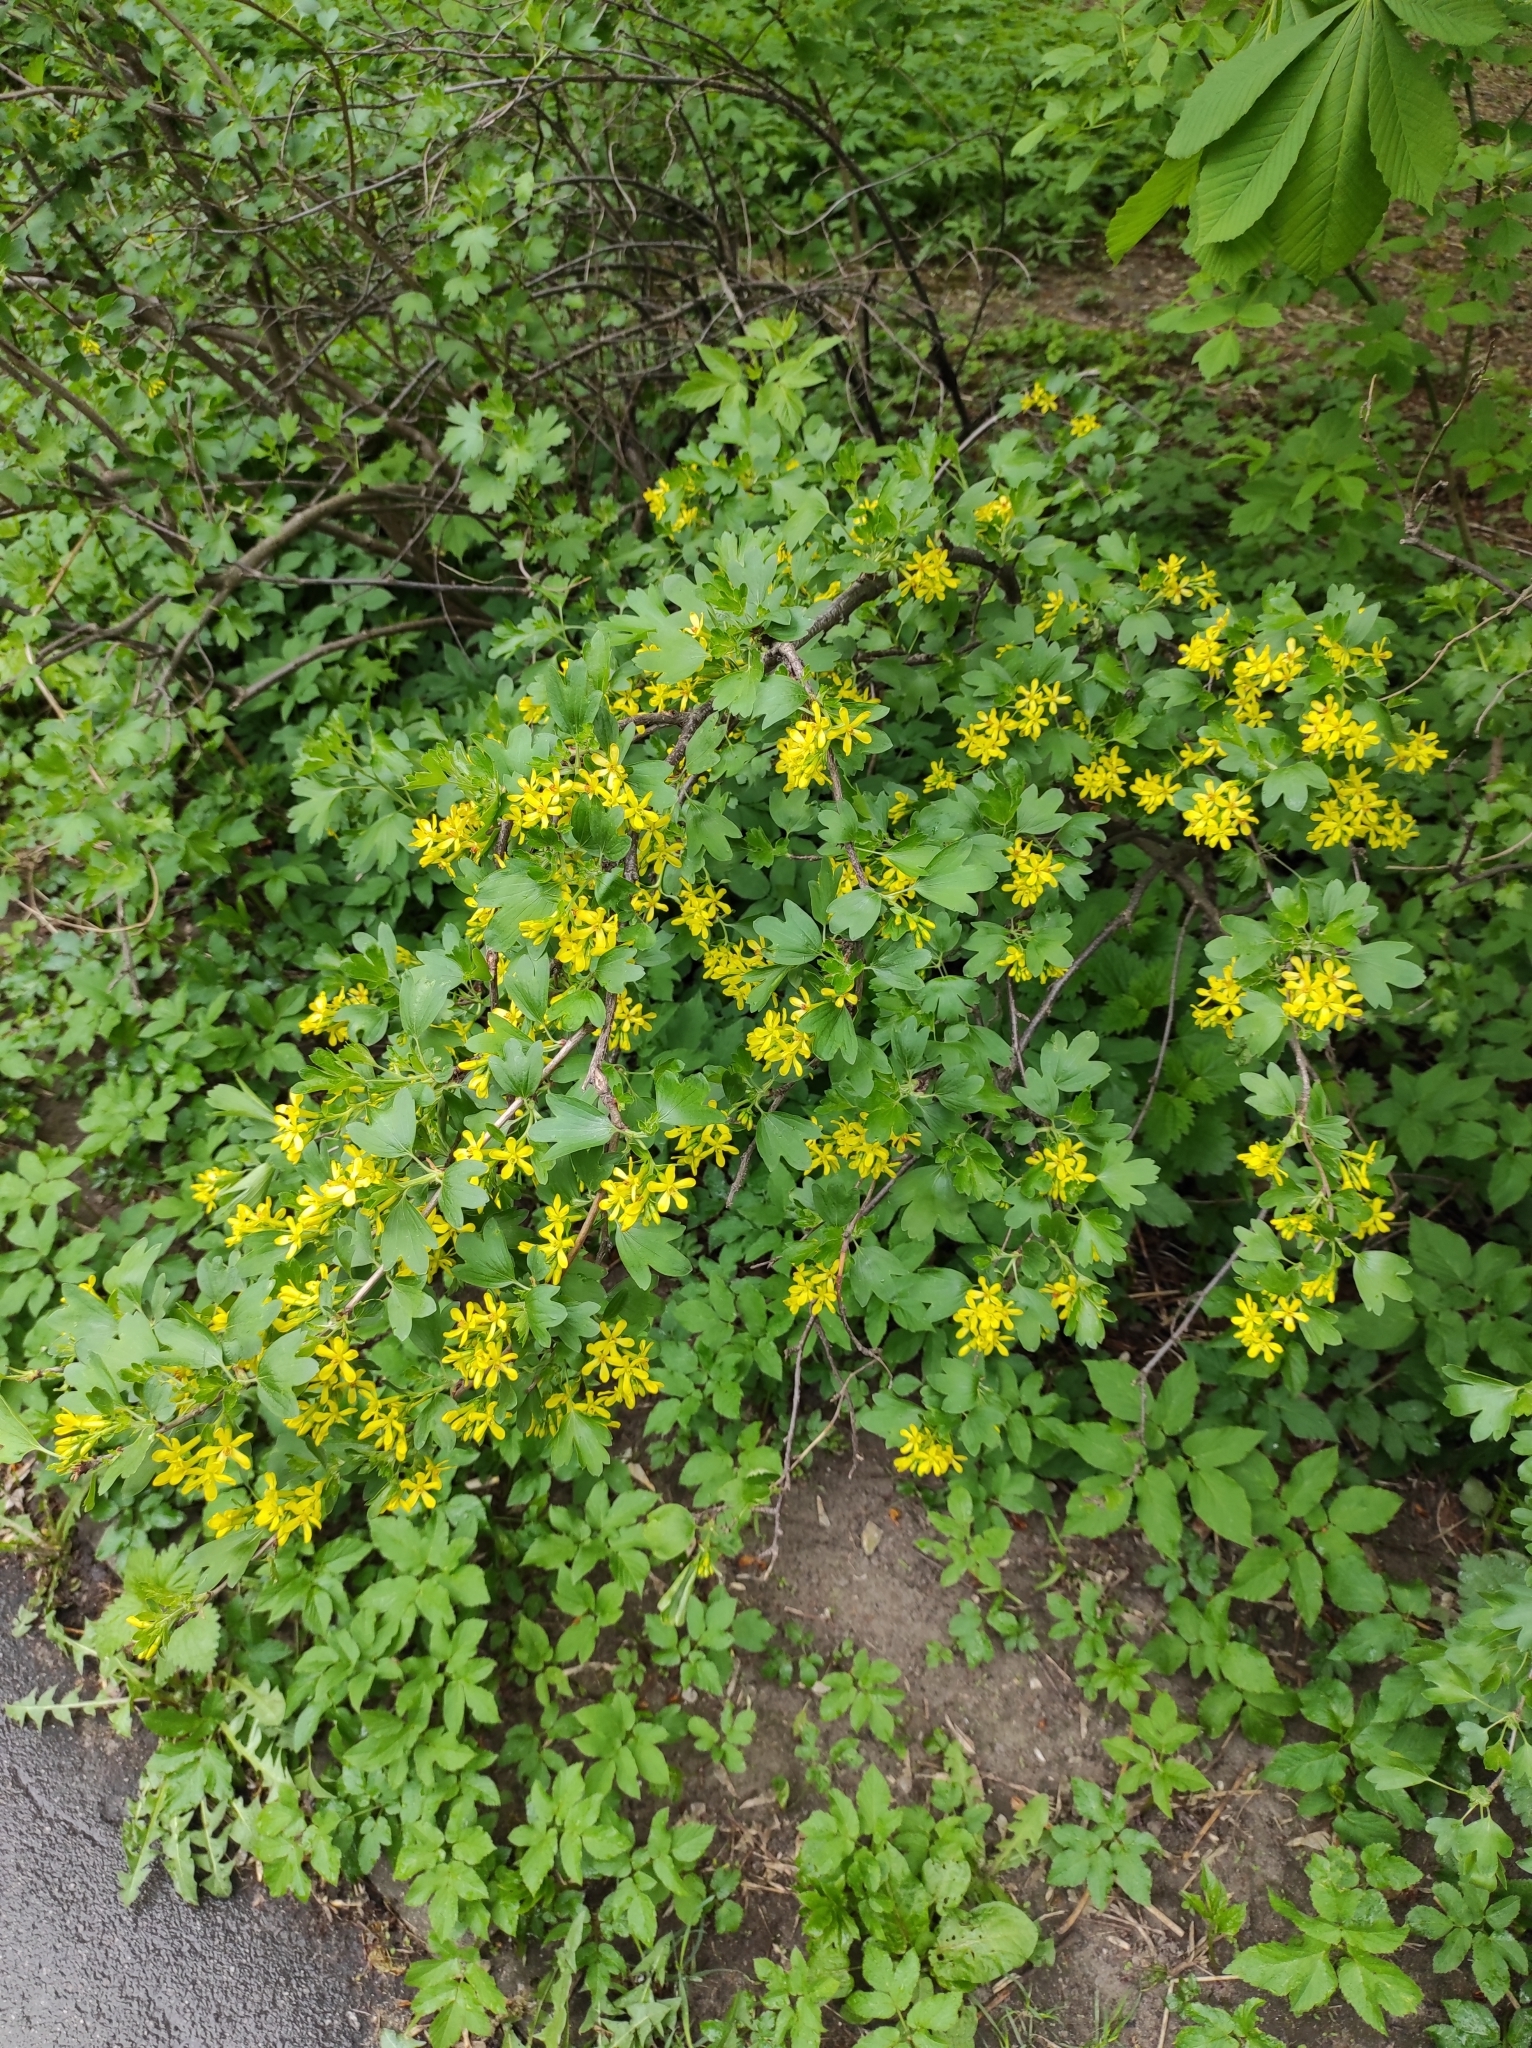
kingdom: Plantae
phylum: Tracheophyta
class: Magnoliopsida
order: Saxifragales
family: Grossulariaceae
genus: Ribes
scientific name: Ribes aureum
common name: Golden currant
